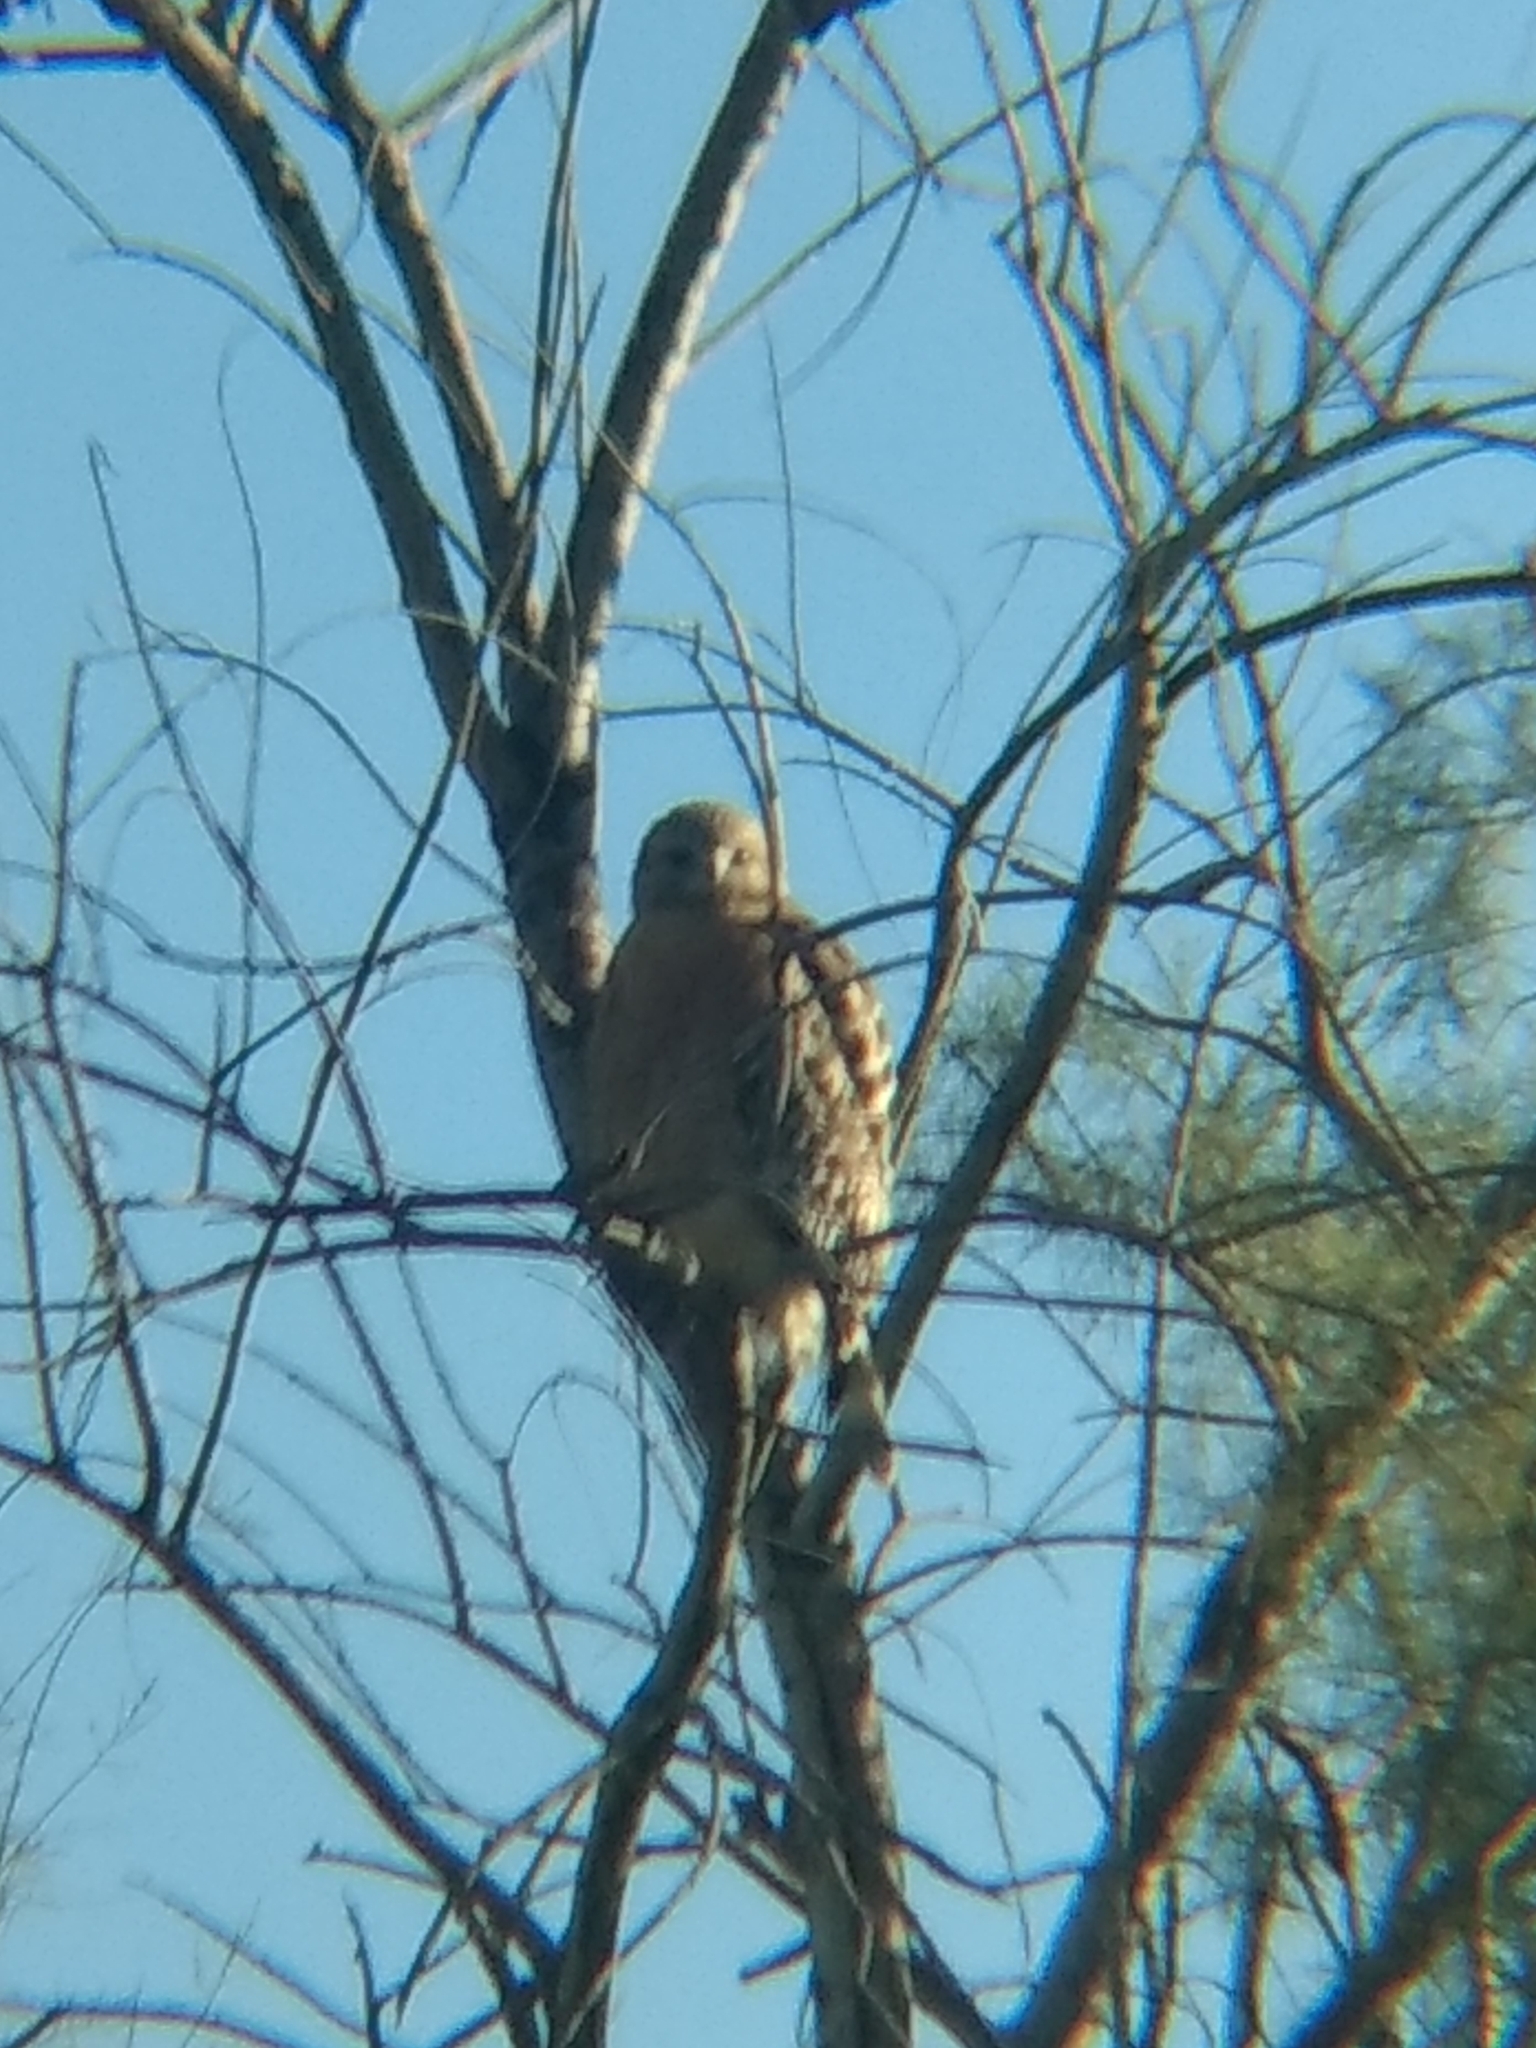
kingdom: Animalia
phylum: Chordata
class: Aves
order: Accipitriformes
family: Accipitridae
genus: Buteo
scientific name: Buteo lineatus
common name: Red-shouldered hawk
